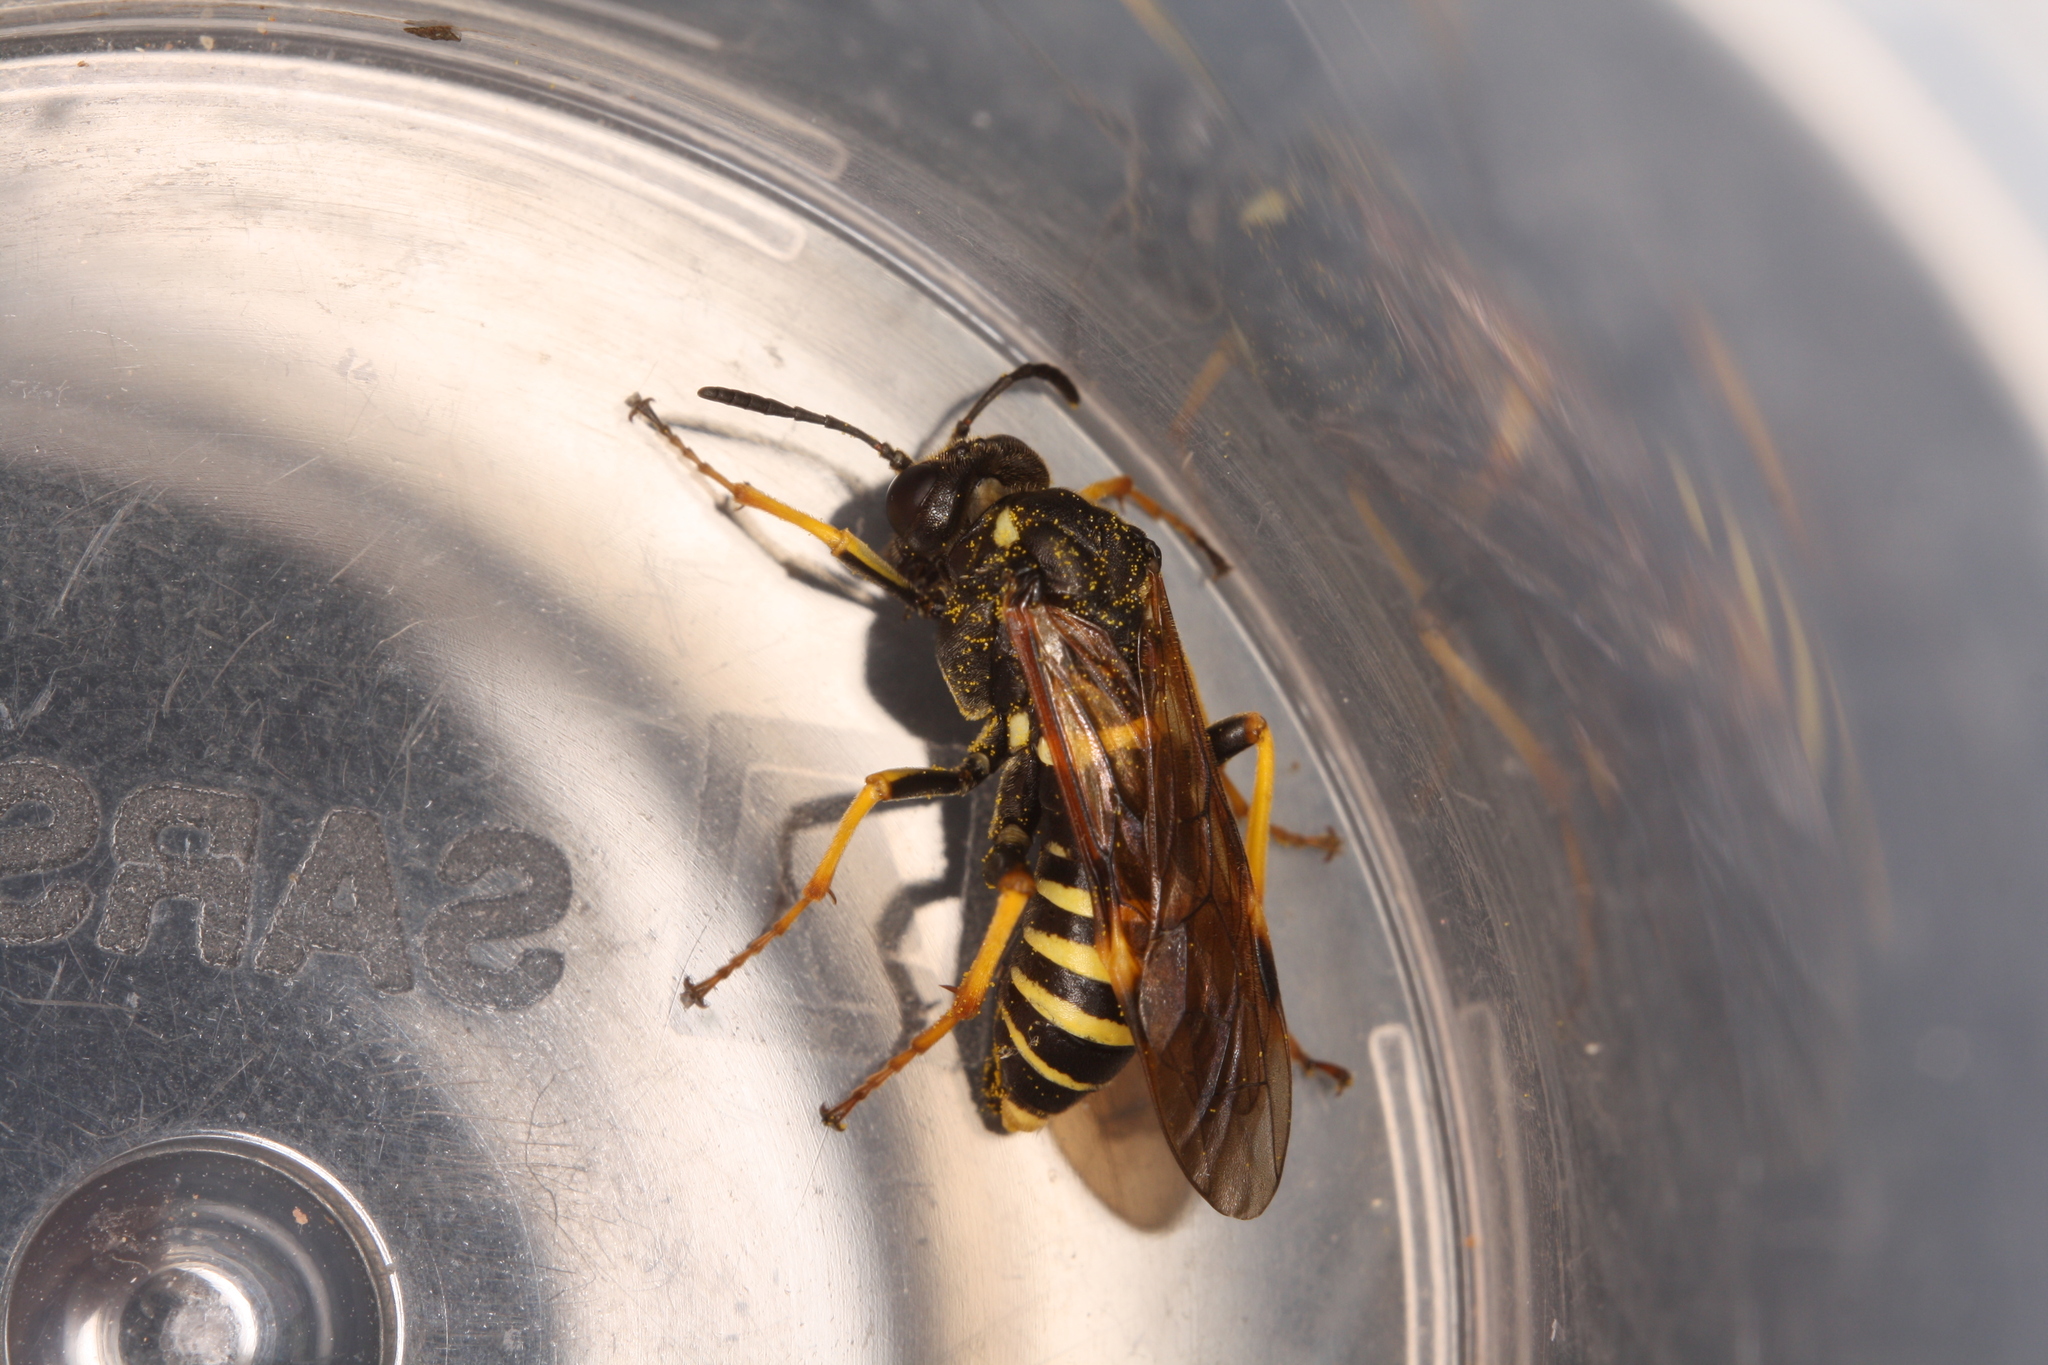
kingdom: Animalia
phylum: Arthropoda
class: Insecta
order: Hymenoptera
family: Tenthredinidae
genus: Tenthredo
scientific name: Tenthredo koehleri
